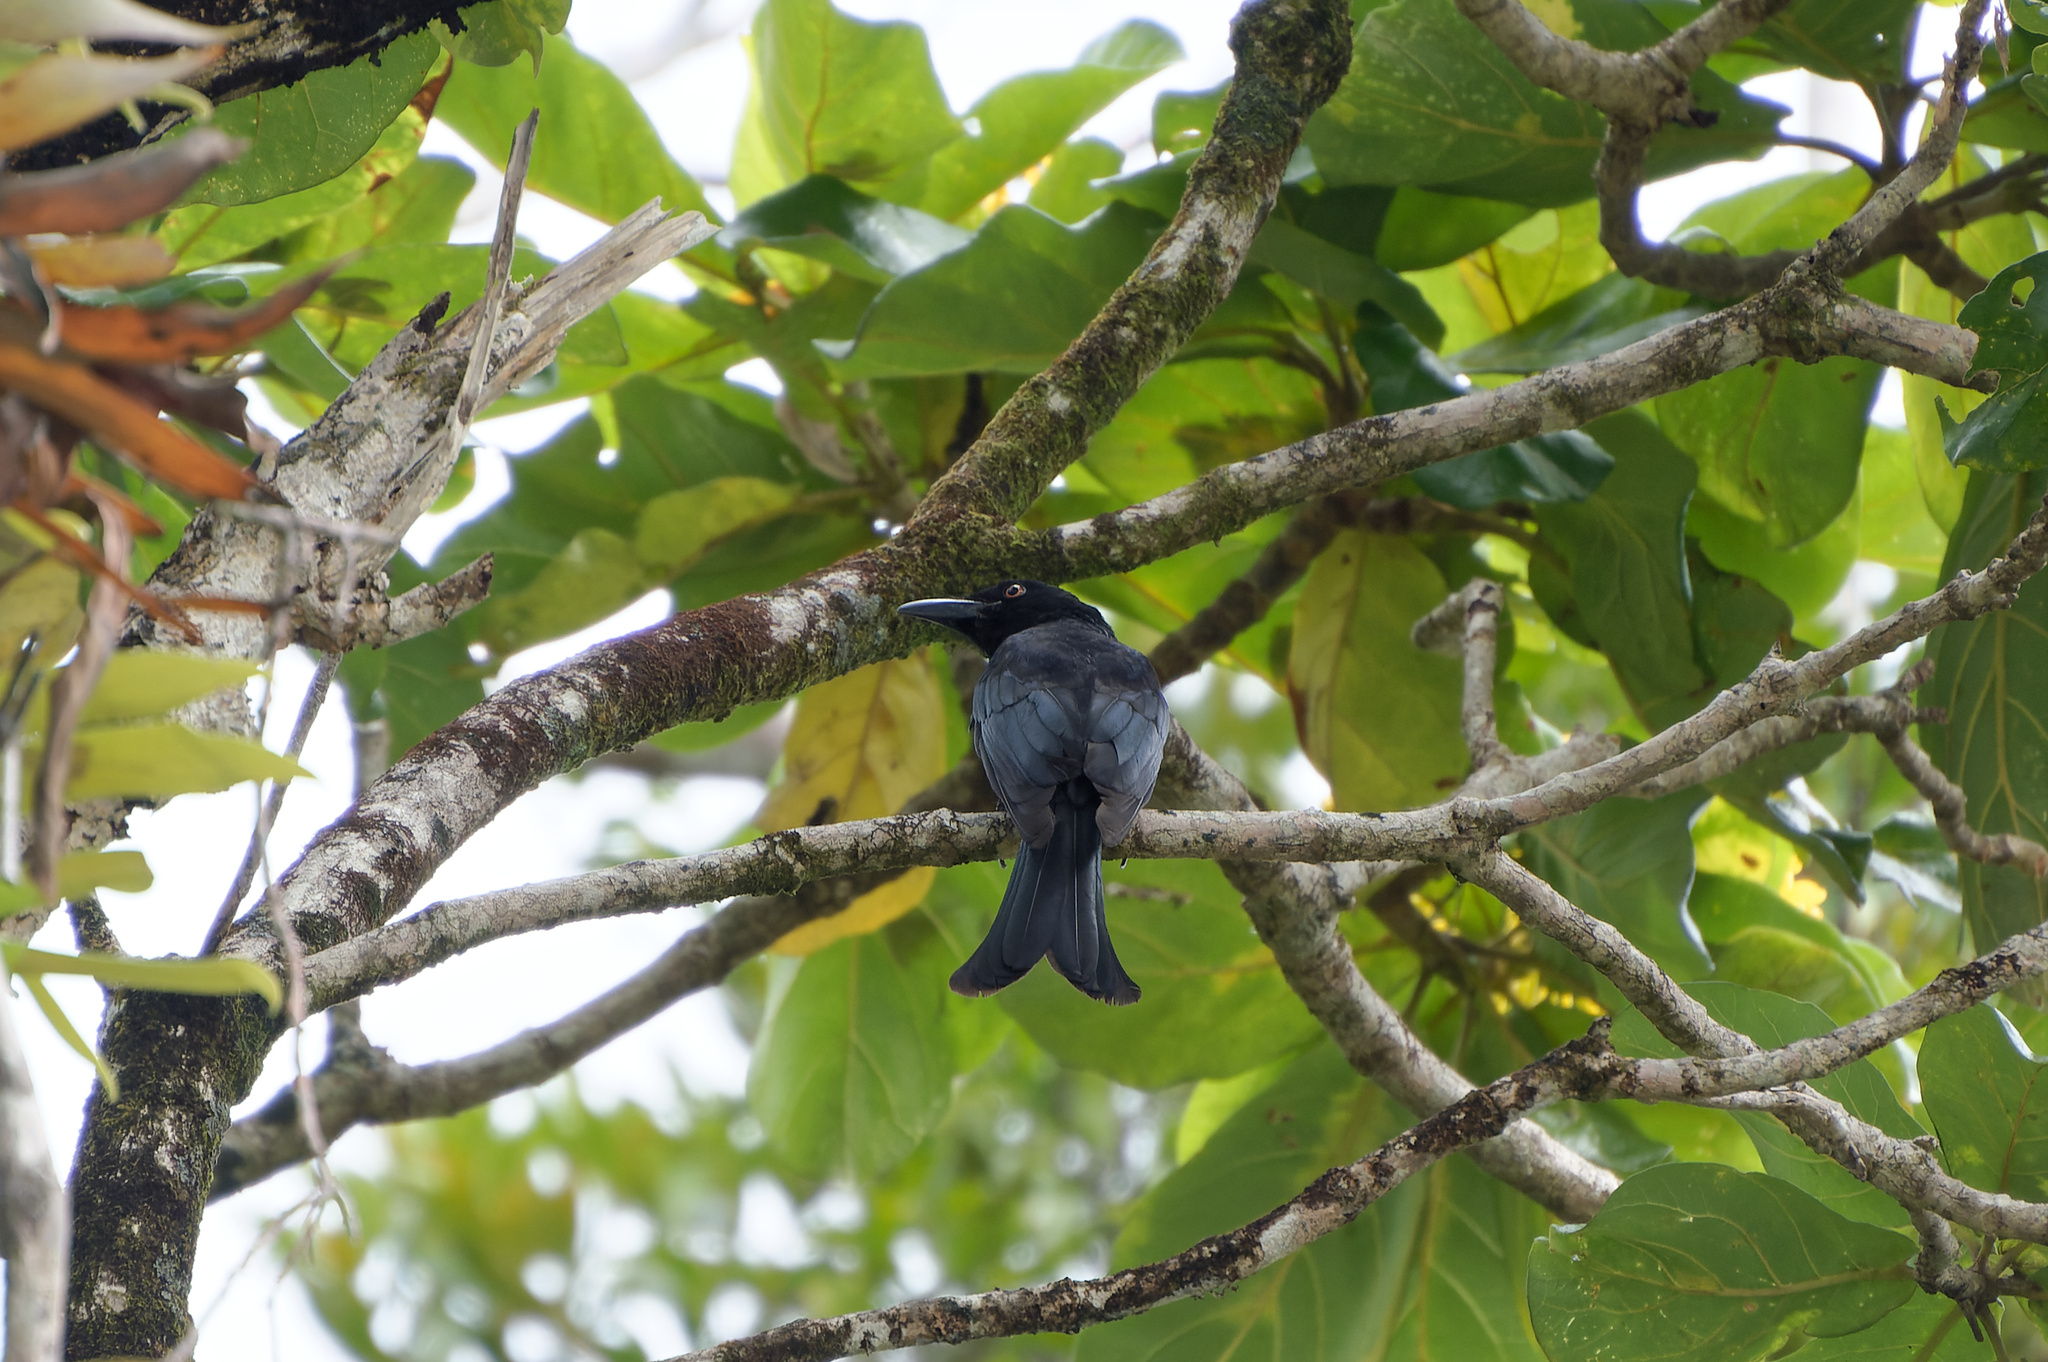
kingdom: Animalia
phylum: Chordata
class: Aves
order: Passeriformes
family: Dicruridae
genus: Dicrurus
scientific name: Dicrurus bracteatus
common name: Spangled drongo
